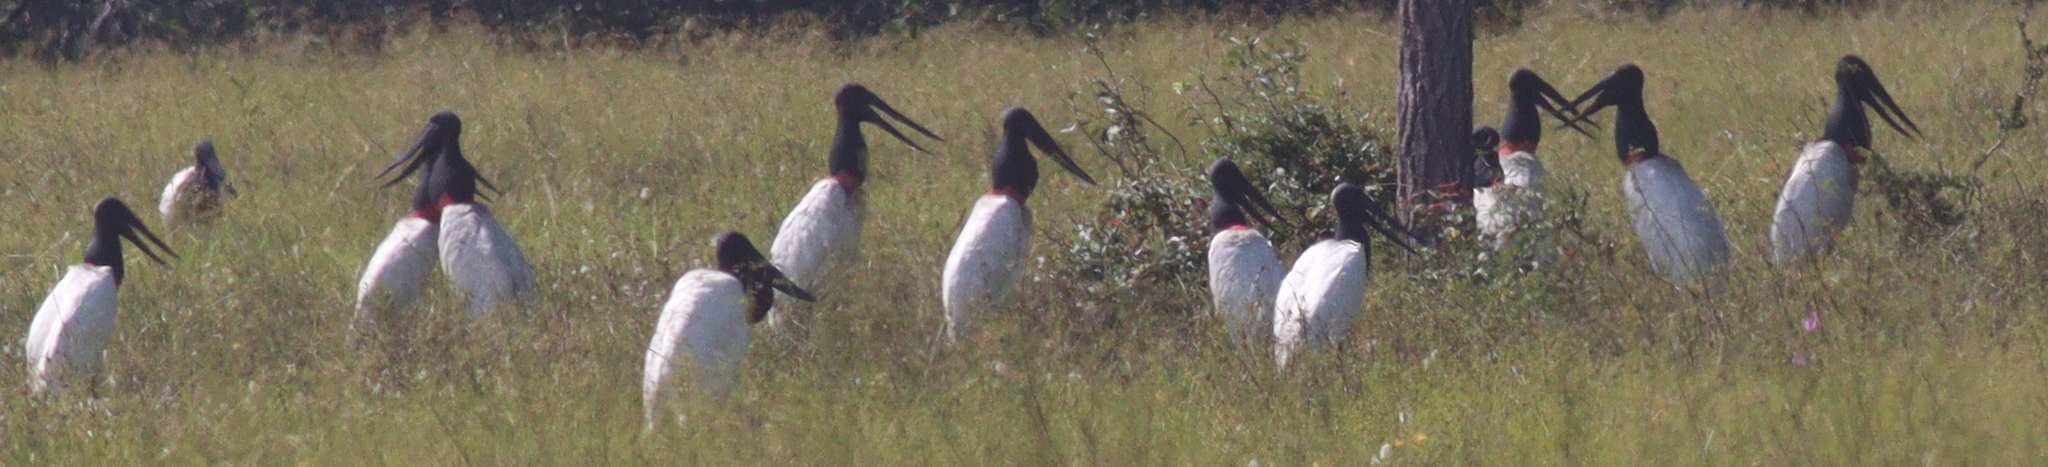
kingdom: Animalia
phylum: Chordata
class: Aves
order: Ciconiiformes
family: Ciconiidae
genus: Jabiru
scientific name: Jabiru mycteria
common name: Jabiru
